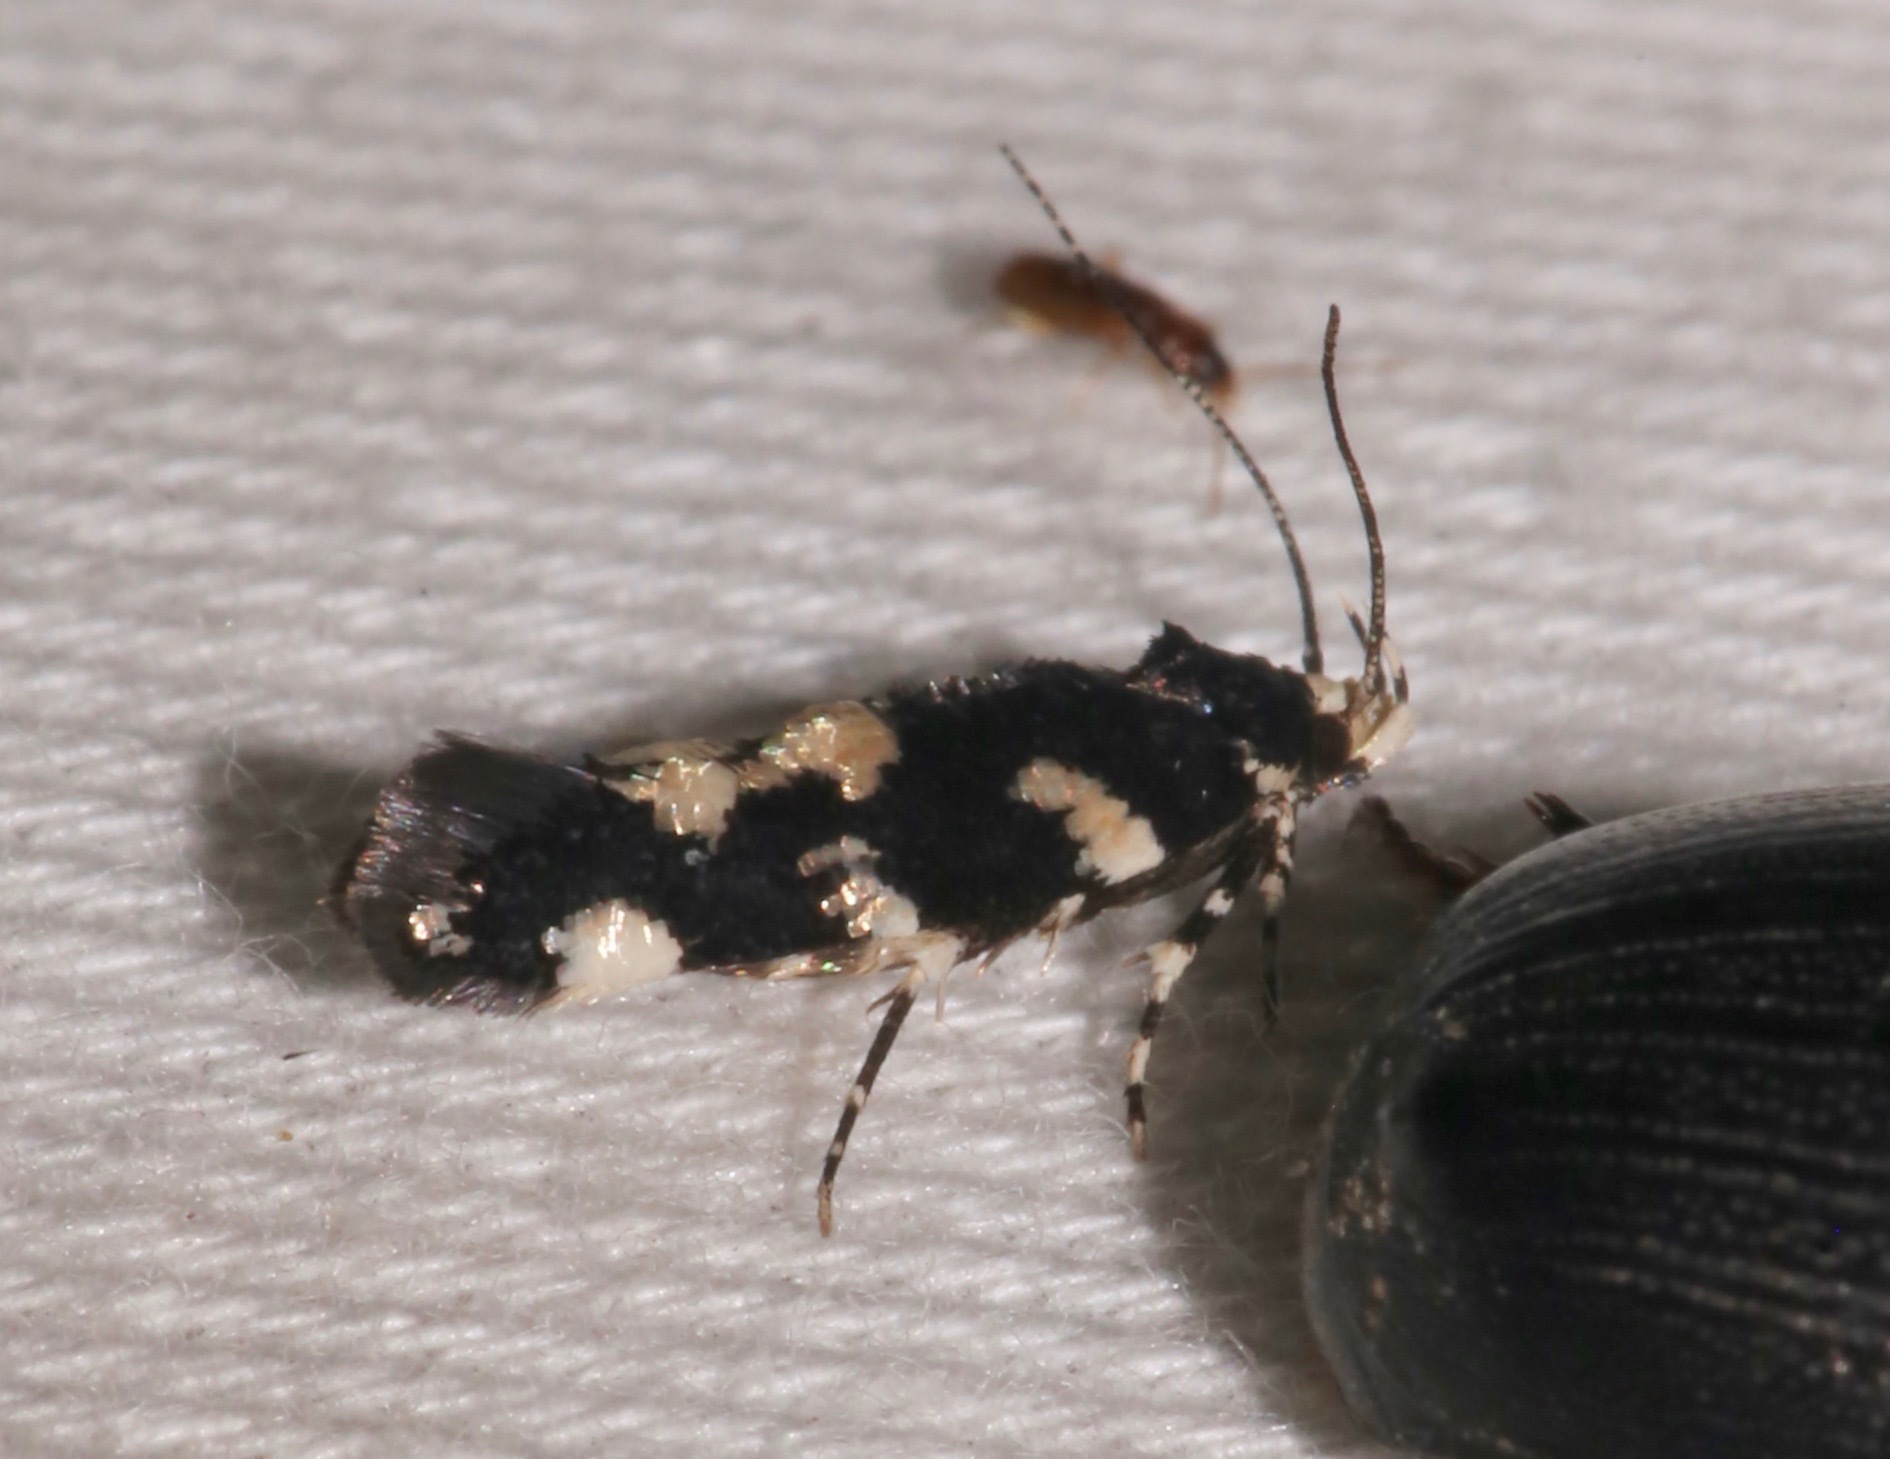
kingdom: Animalia
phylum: Arthropoda
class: Insecta
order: Lepidoptera
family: Cosmopterigidae
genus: Eteobalea
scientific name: Eteobalea
